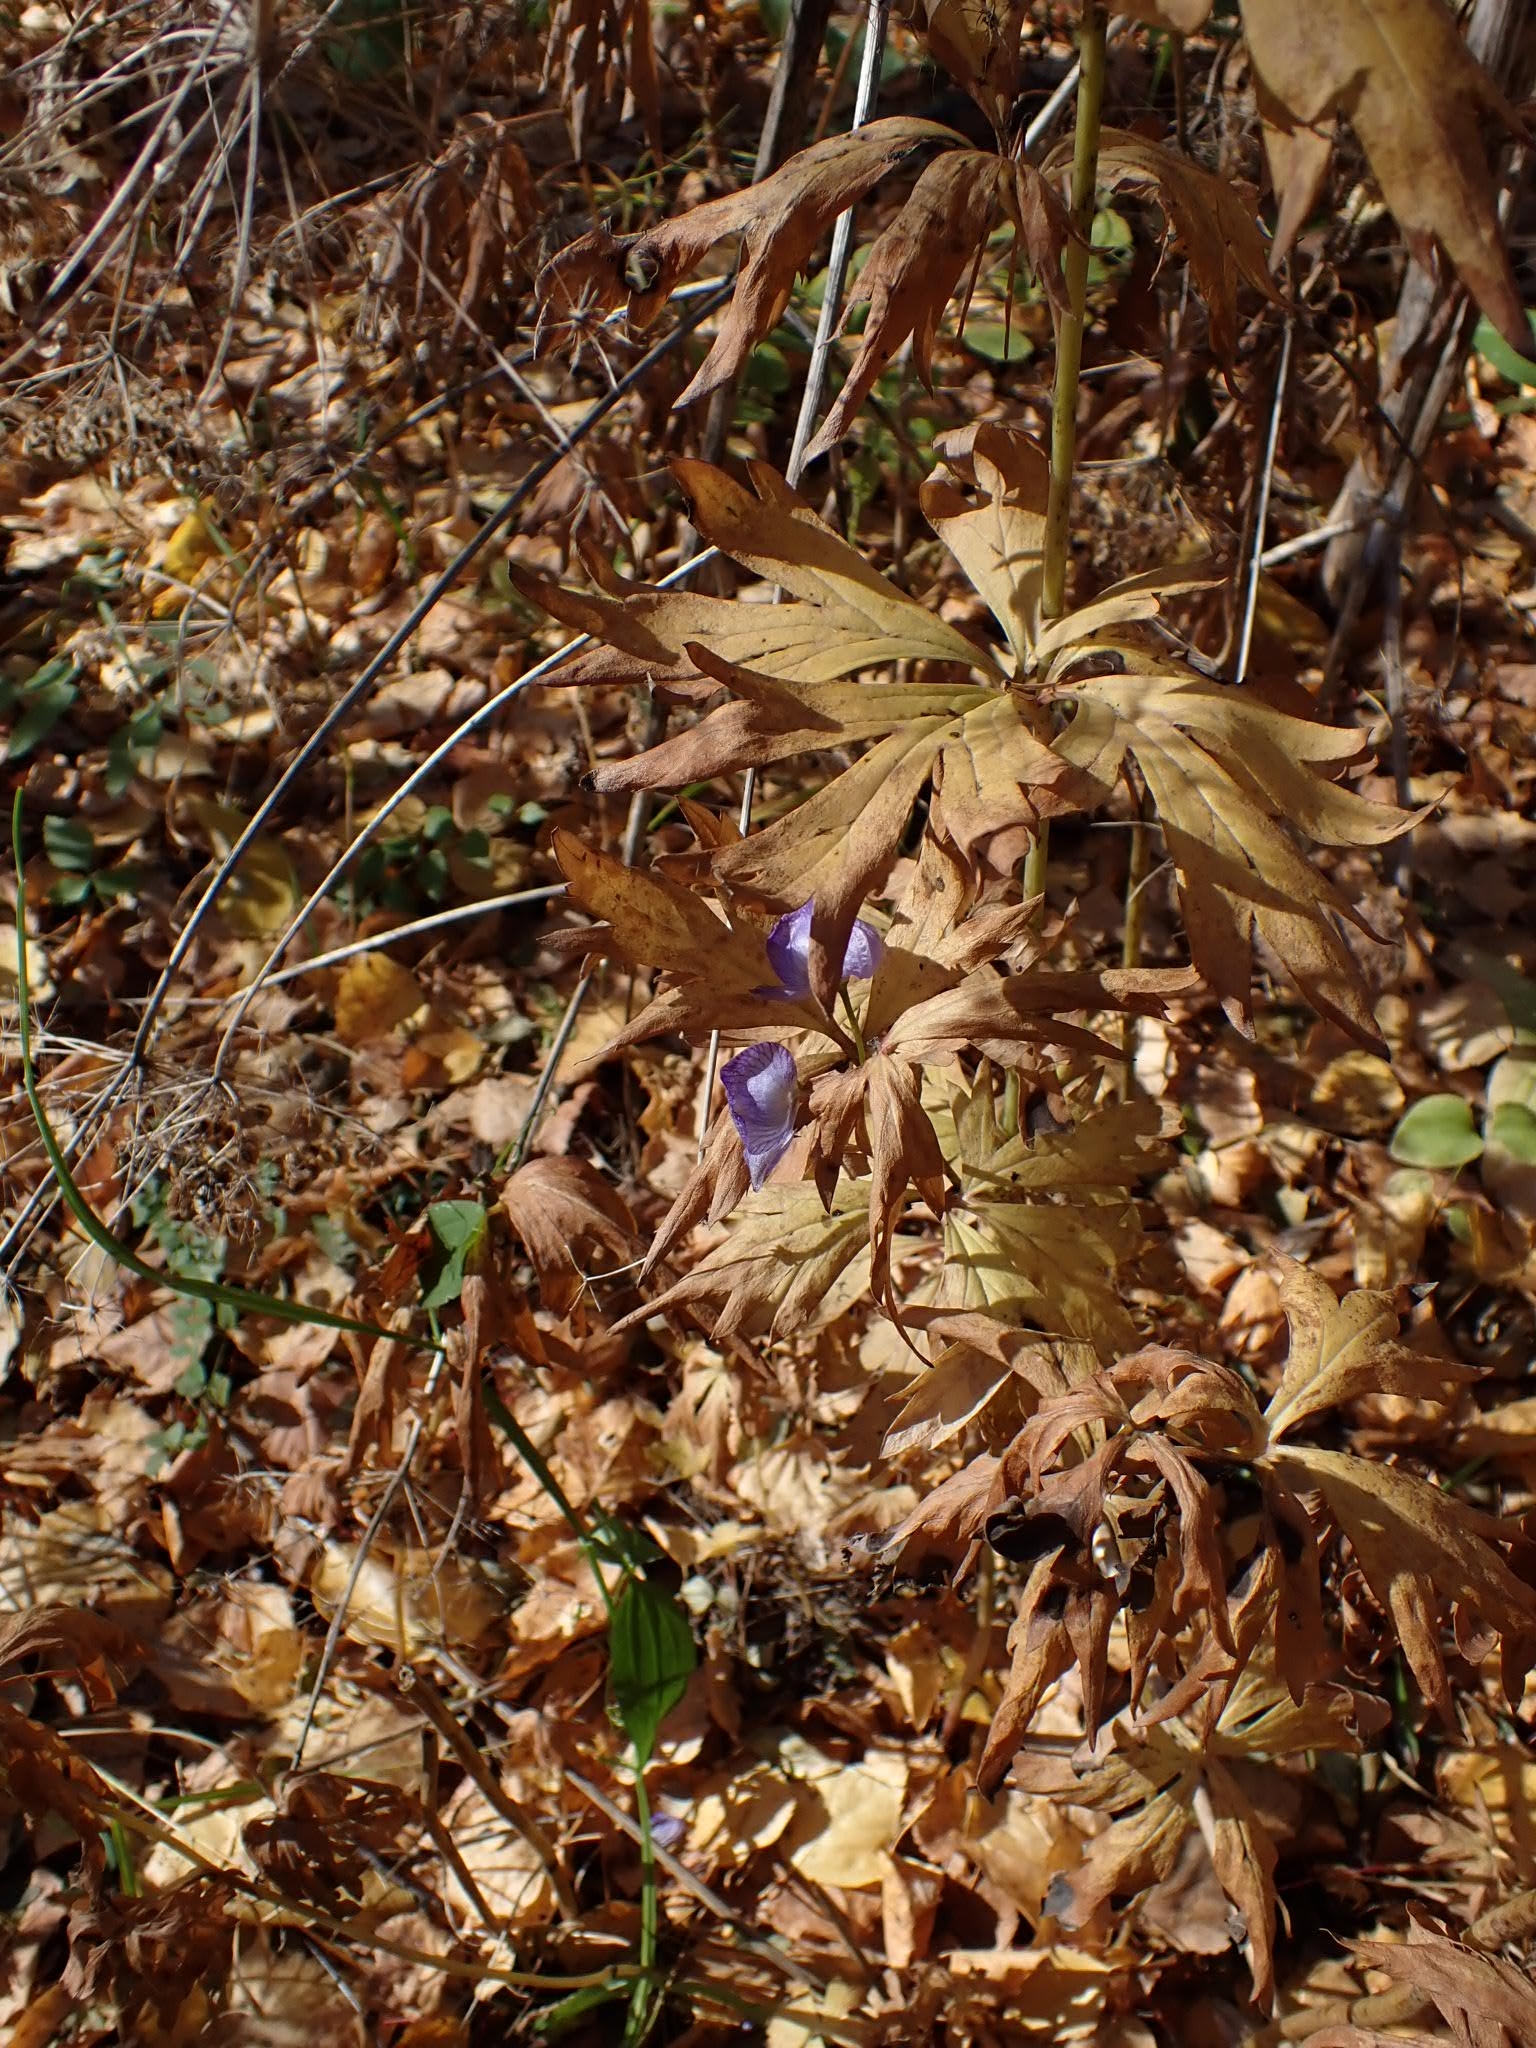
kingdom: Plantae
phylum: Tracheophyta
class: Magnoliopsida
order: Ranunculales
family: Ranunculaceae
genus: Aconitum
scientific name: Aconitum volubile
